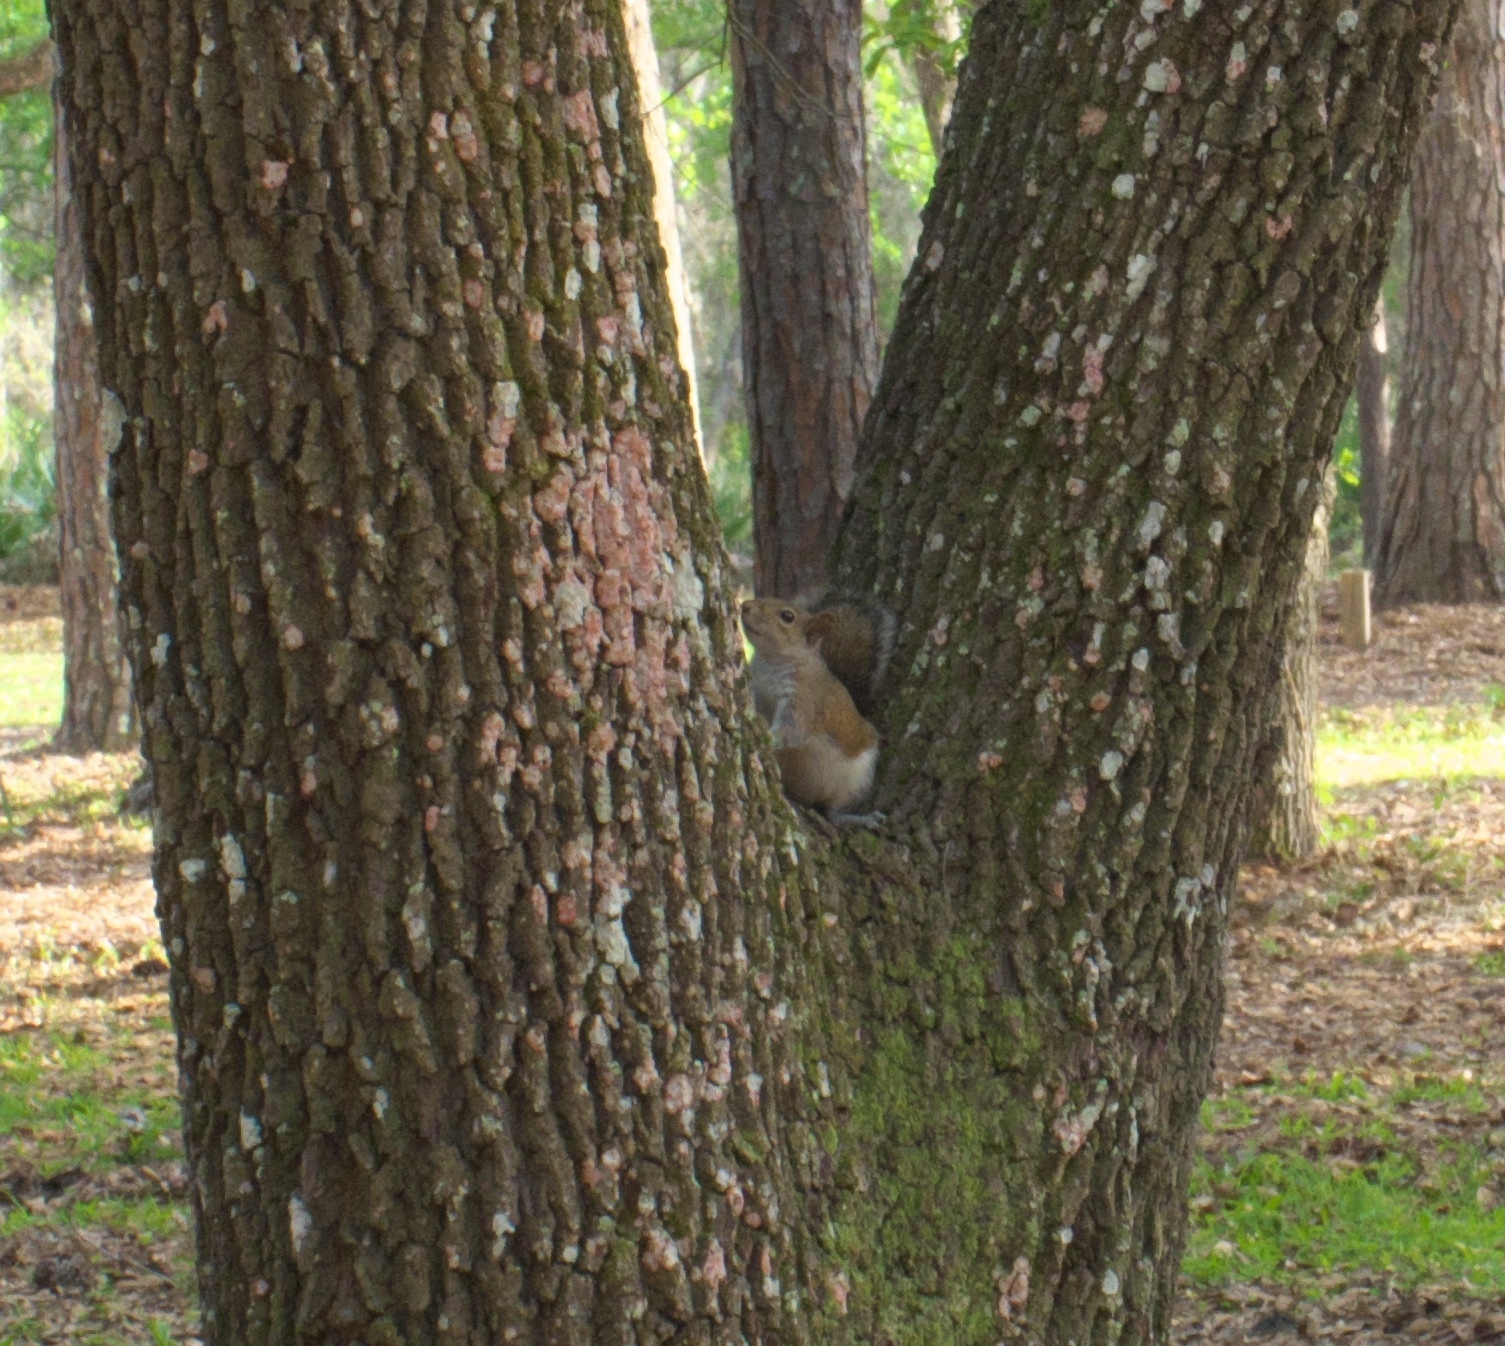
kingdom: Animalia
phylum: Chordata
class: Mammalia
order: Rodentia
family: Sciuridae
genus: Sciurus
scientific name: Sciurus carolinensis
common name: Eastern gray squirrel
